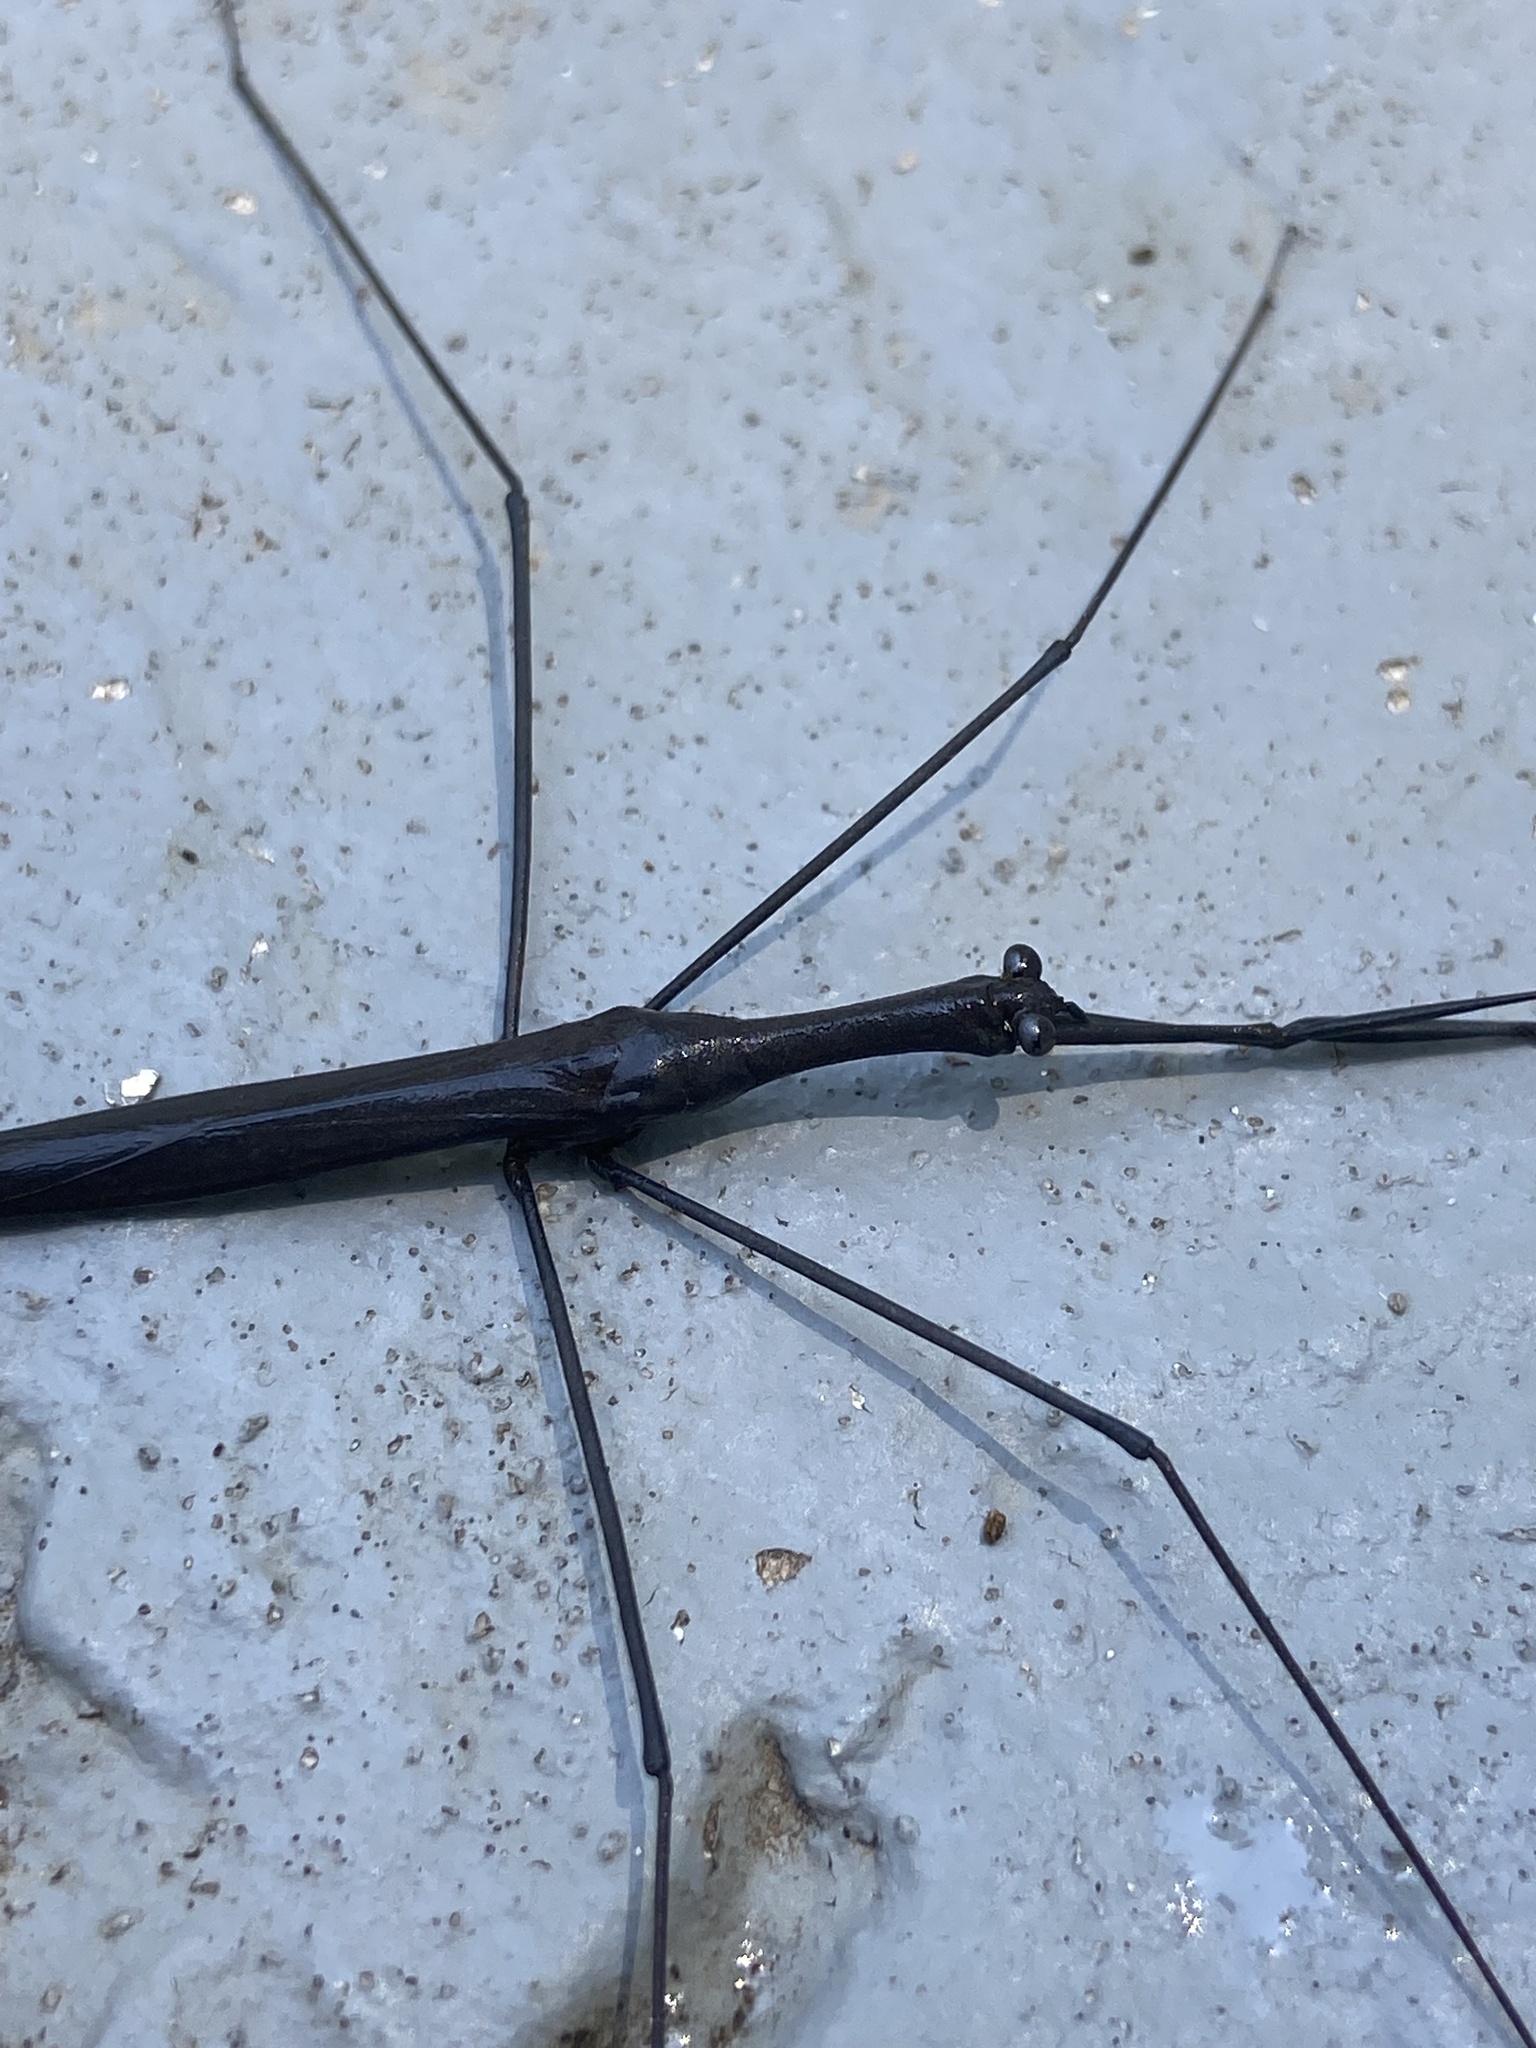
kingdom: Animalia
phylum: Arthropoda
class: Insecta
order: Hemiptera
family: Nepidae
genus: Ranatra
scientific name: Ranatra
